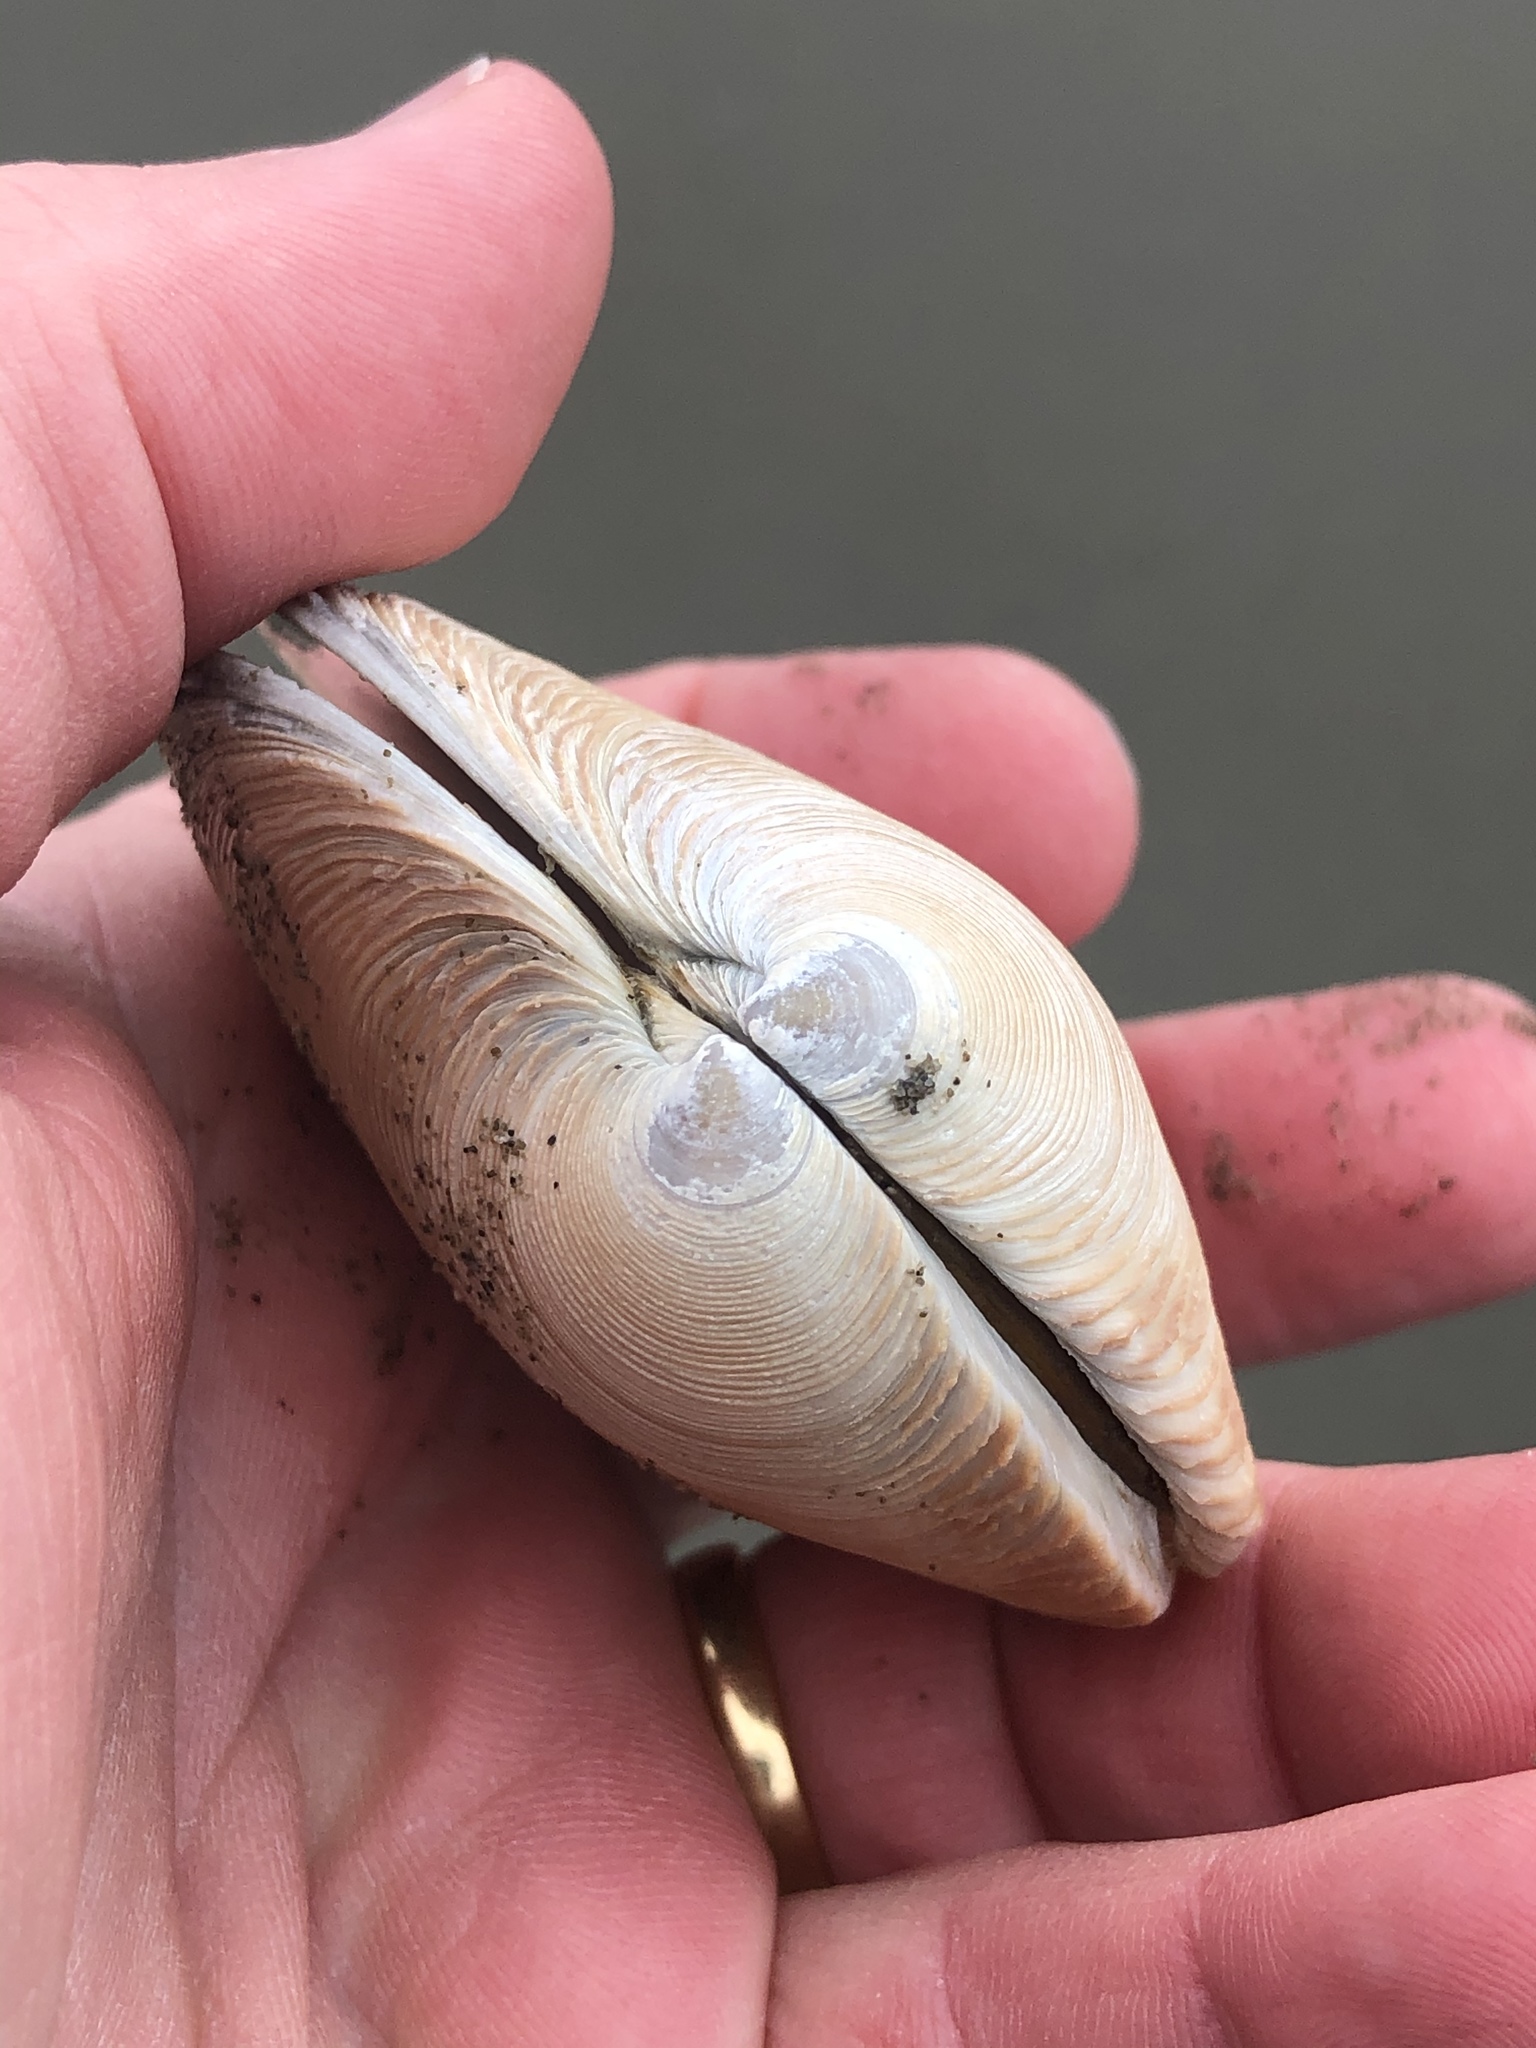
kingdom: Animalia
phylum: Mollusca
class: Bivalvia
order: Venerida
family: Veneridae
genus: Dosinia
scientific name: Dosinia anus
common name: Old-woman dosinia
